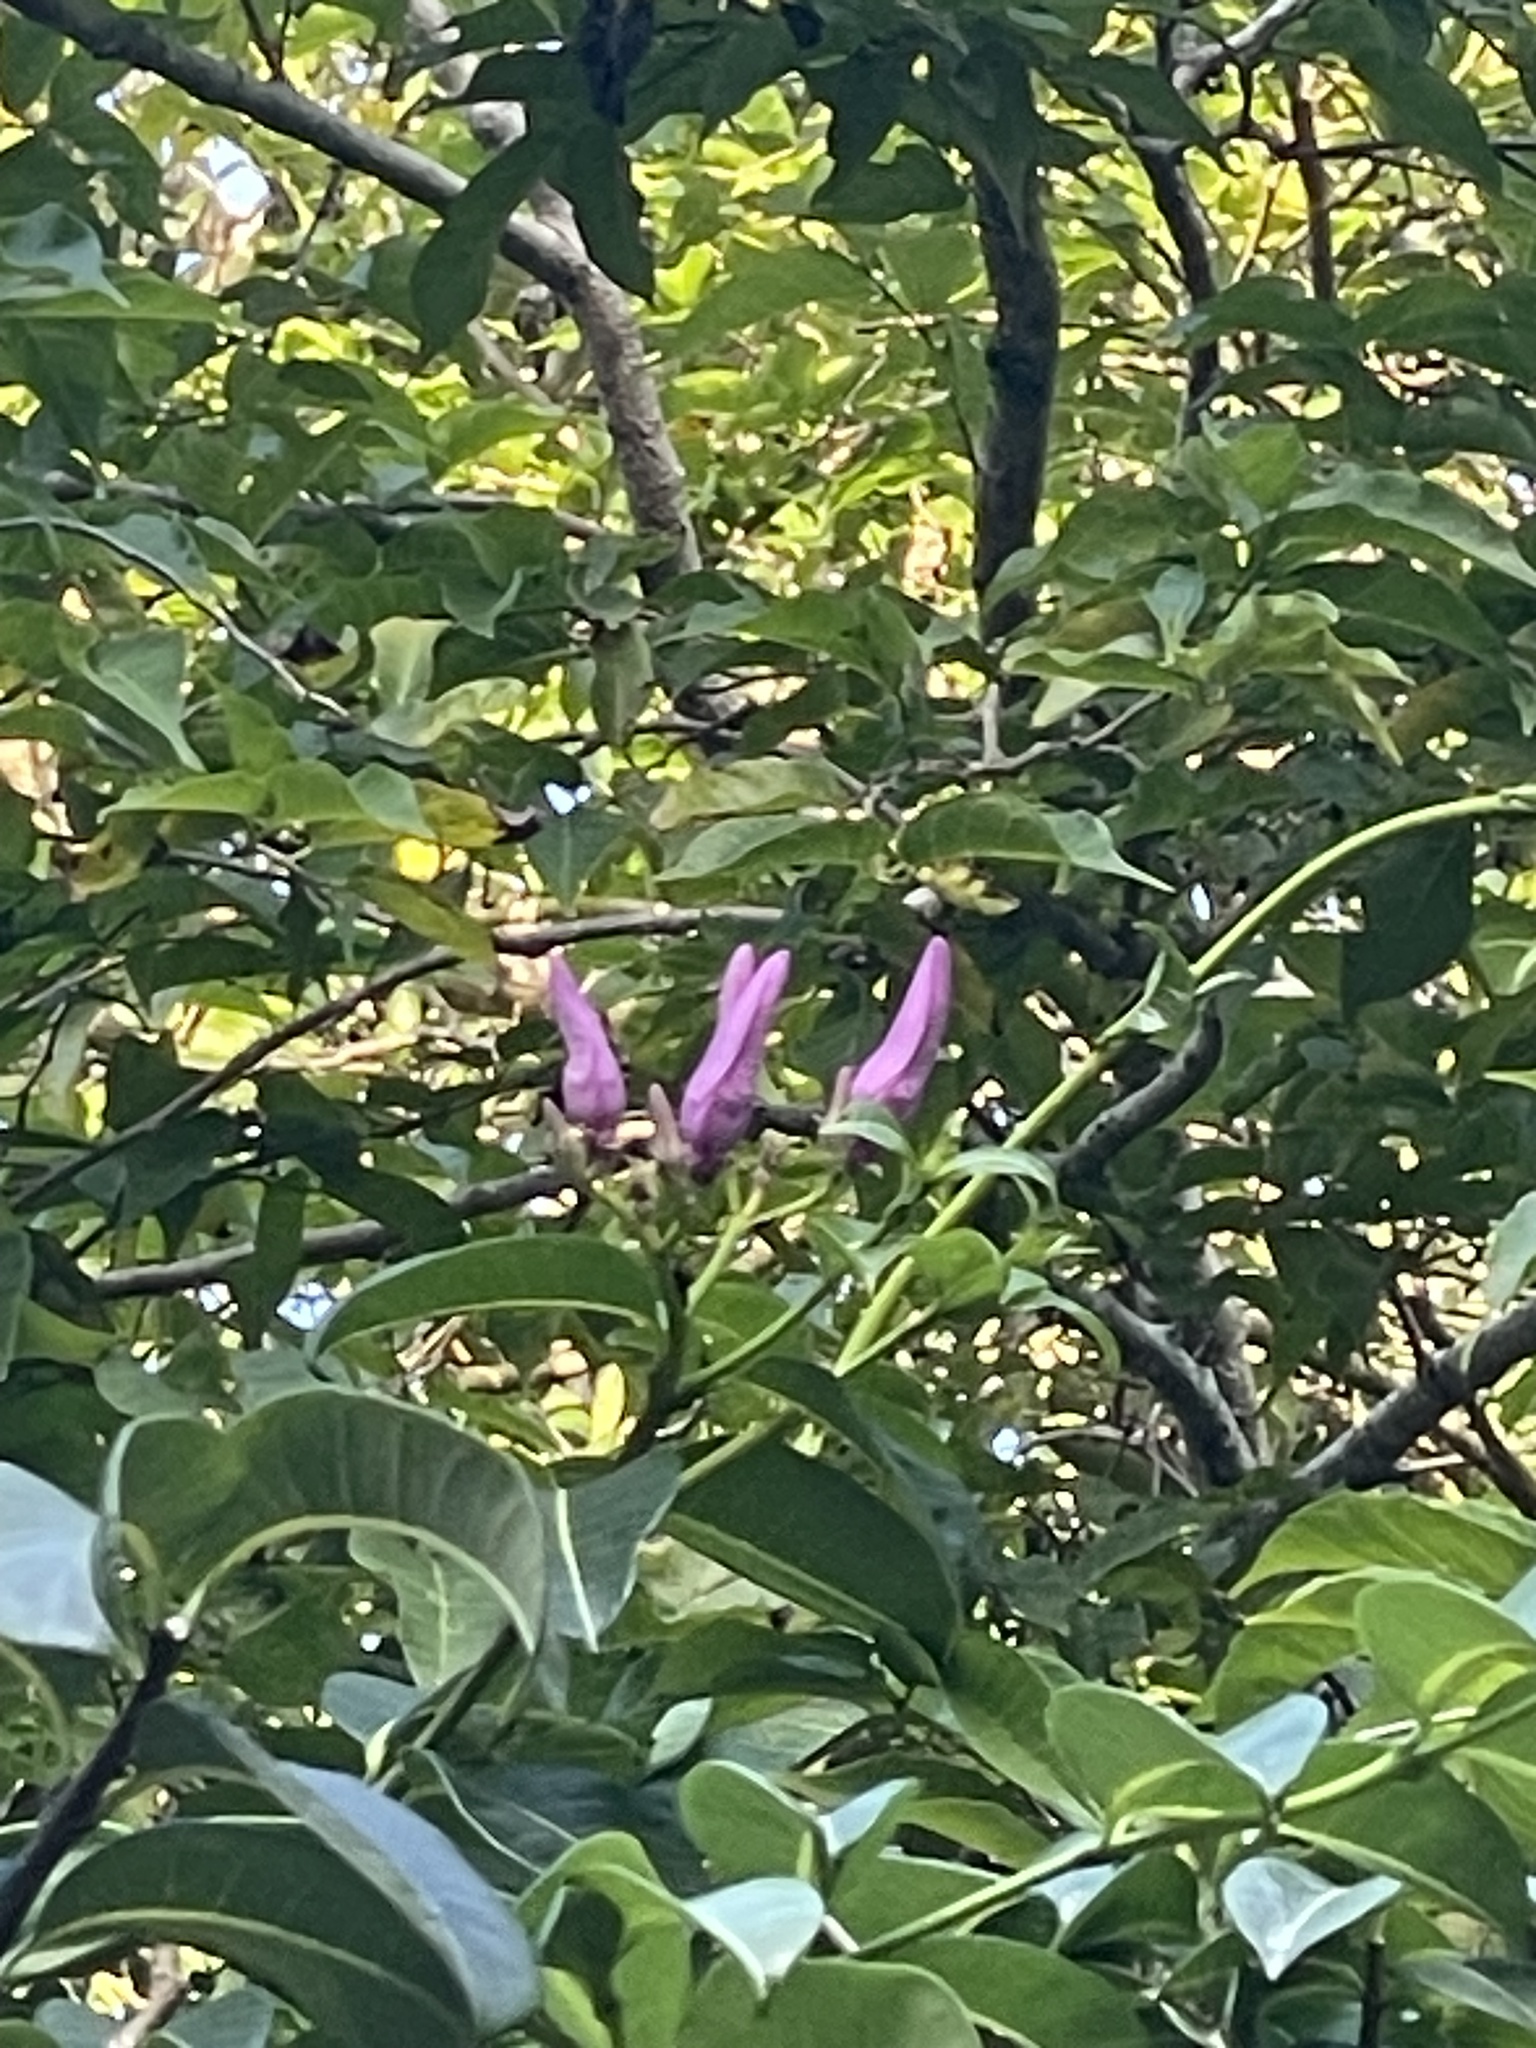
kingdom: Plantae
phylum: Tracheophyta
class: Magnoliopsida
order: Gentianales
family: Apocynaceae
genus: Cryptostegia
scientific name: Cryptostegia grandiflora
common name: Palay rubbervine
